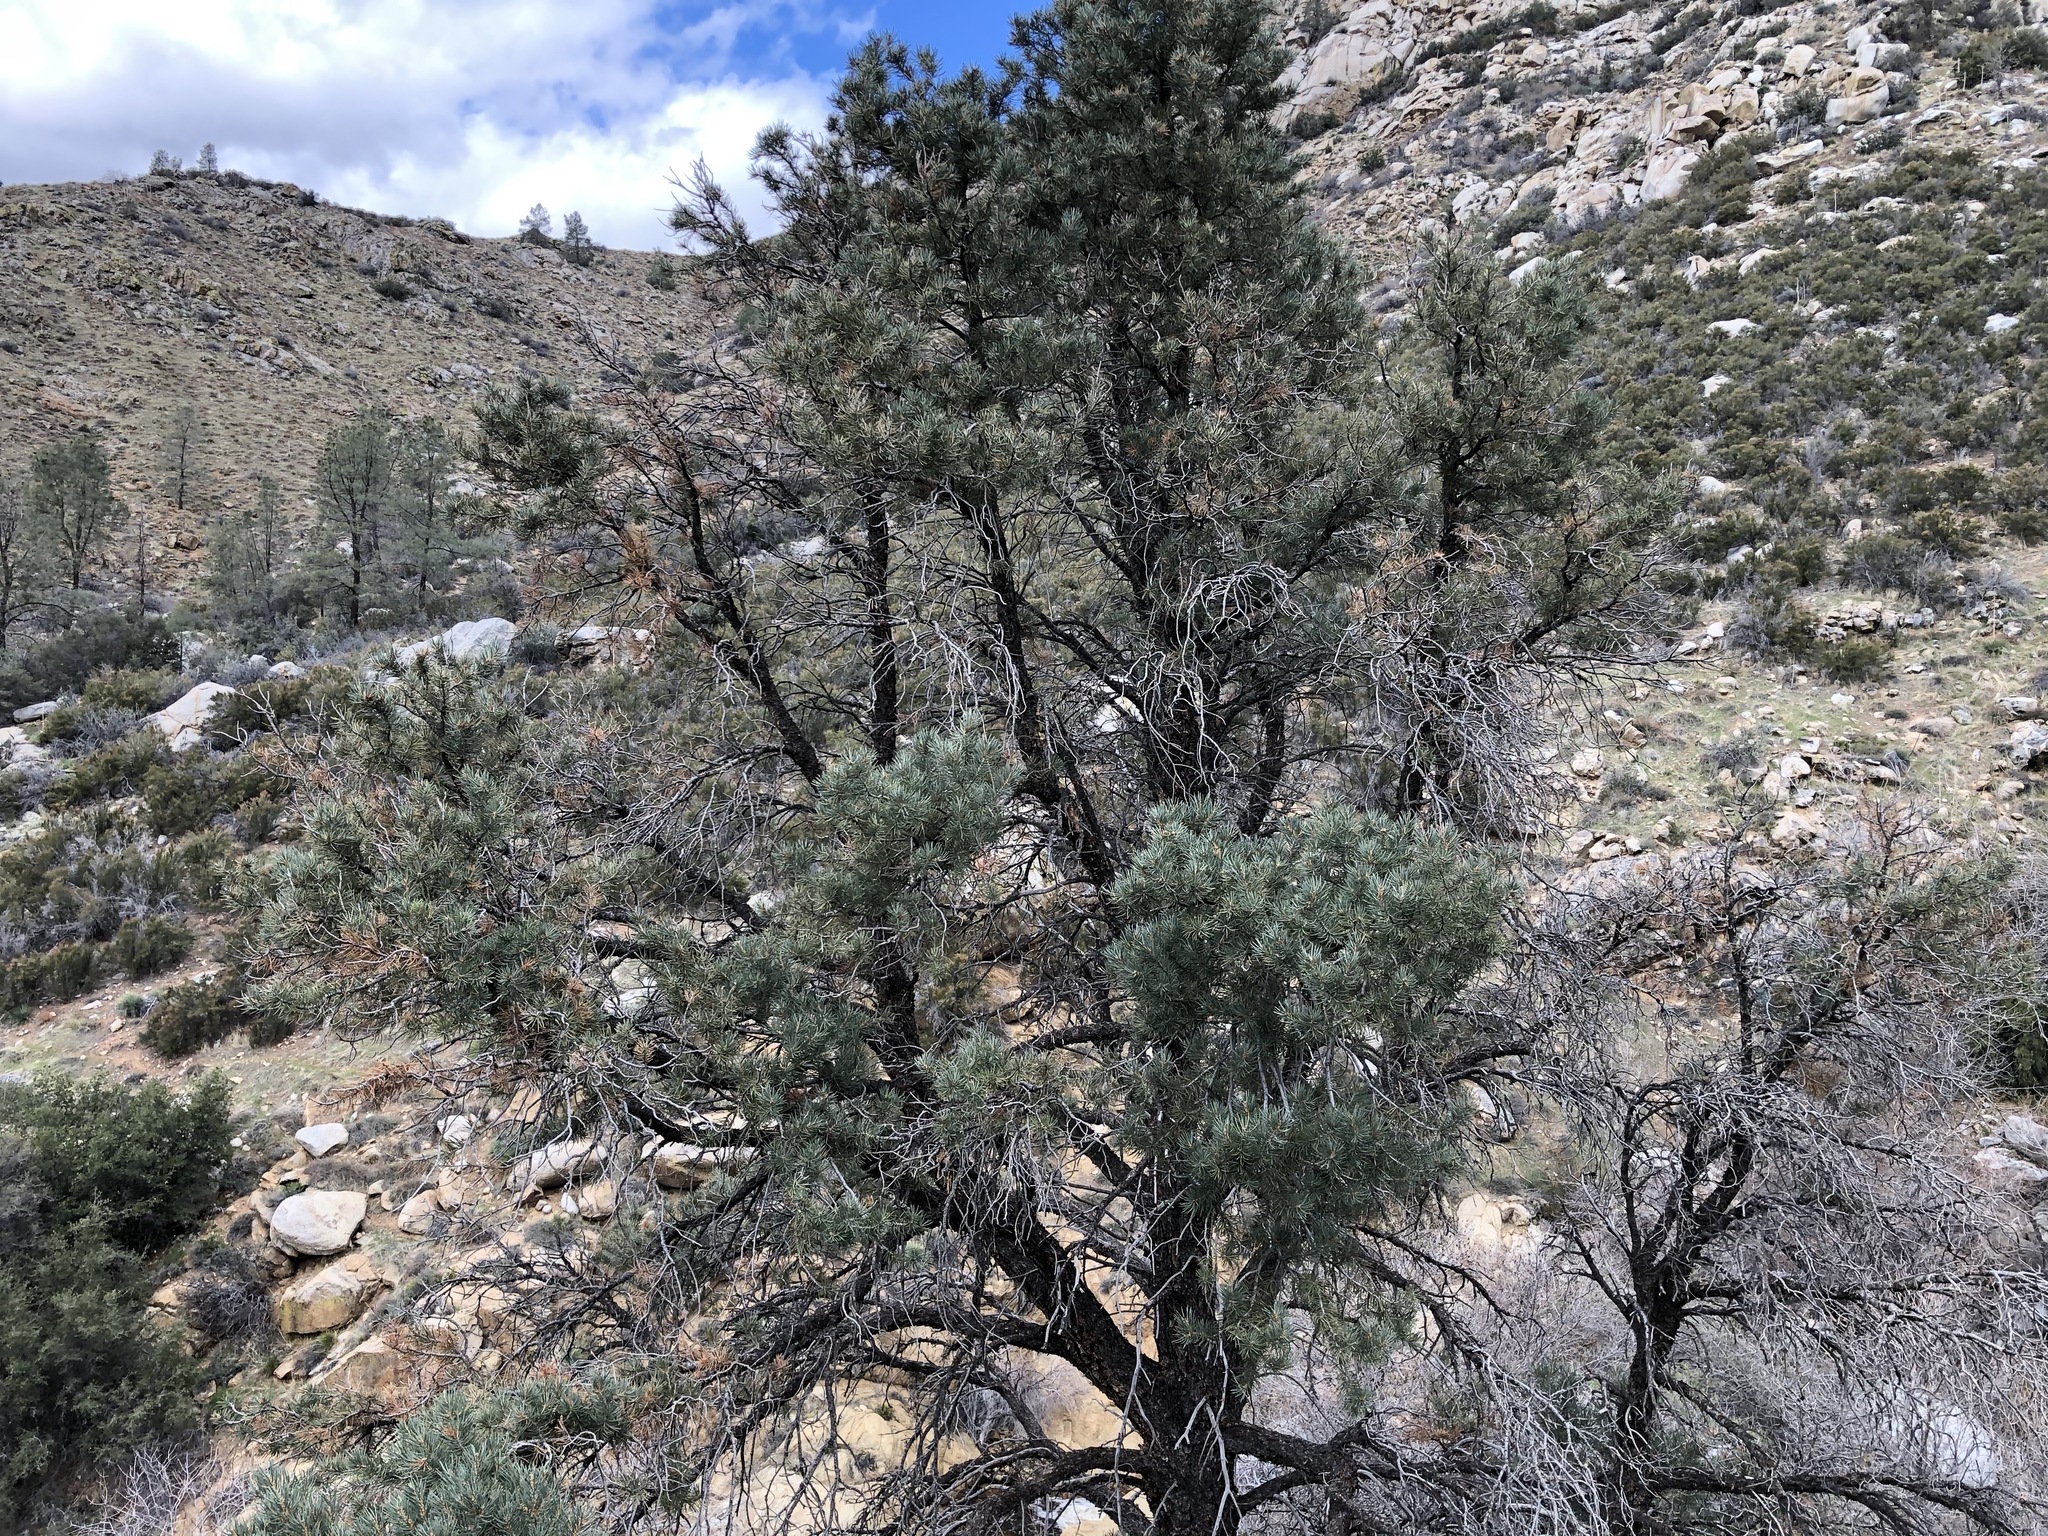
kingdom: Plantae
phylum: Tracheophyta
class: Pinopsida
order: Pinales
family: Pinaceae
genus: Pinus
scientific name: Pinus monophylla
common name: One-leaved nut pine
